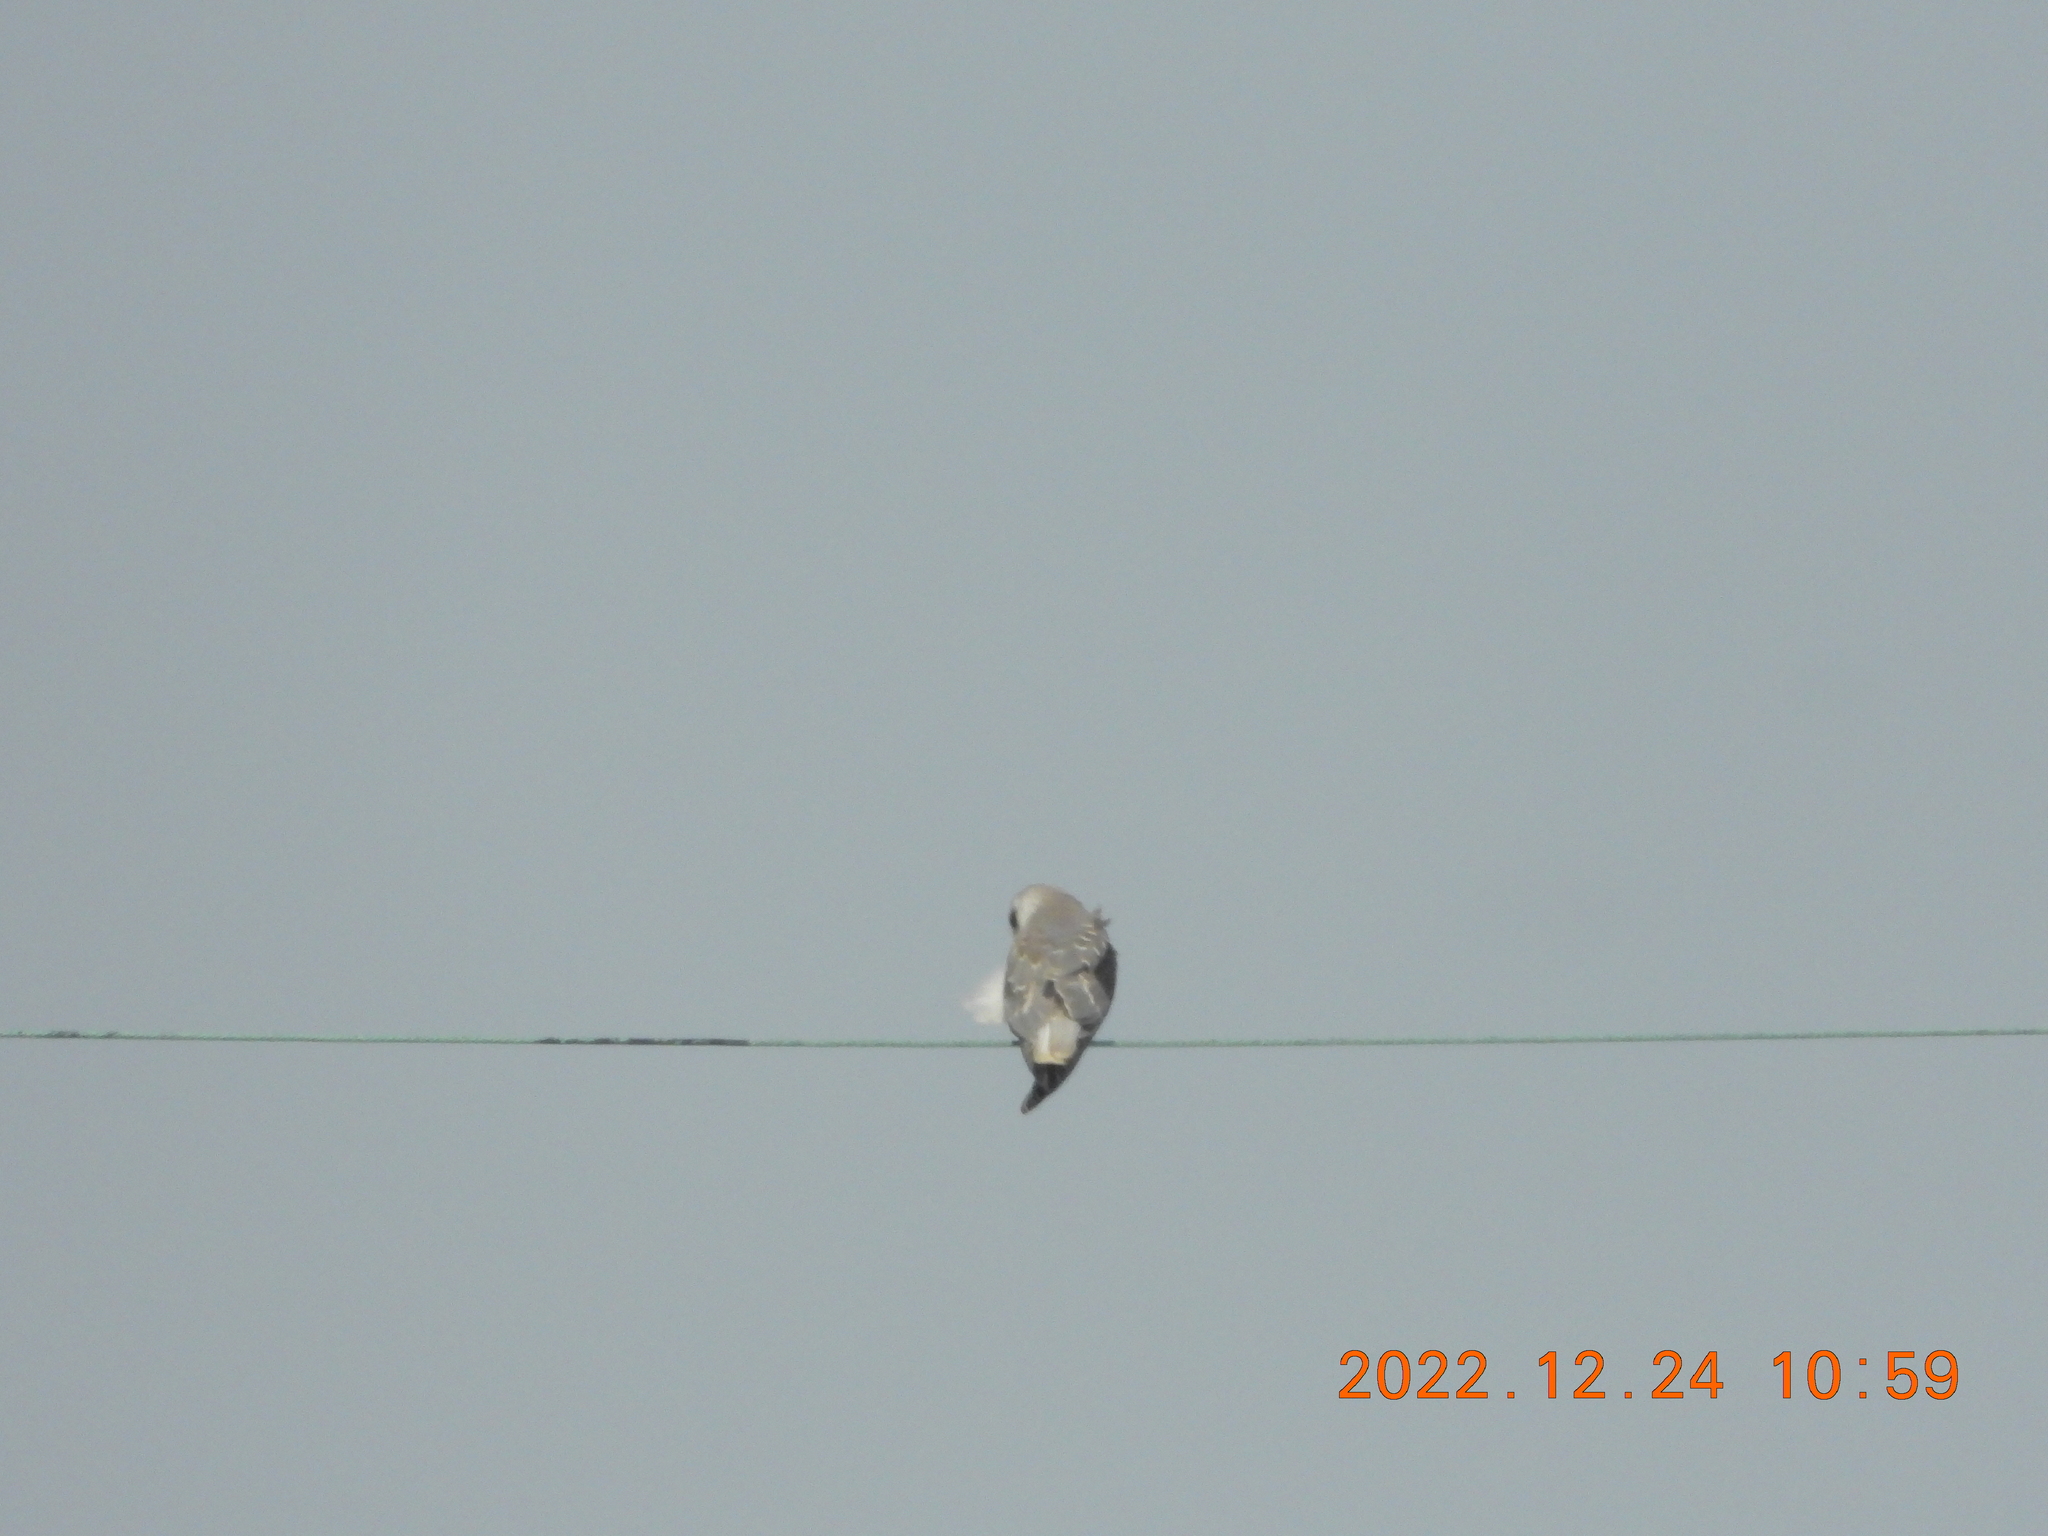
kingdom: Animalia
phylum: Chordata
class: Aves
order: Accipitriformes
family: Accipitridae
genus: Elanus
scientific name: Elanus caeruleus
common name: Black-winged kite
